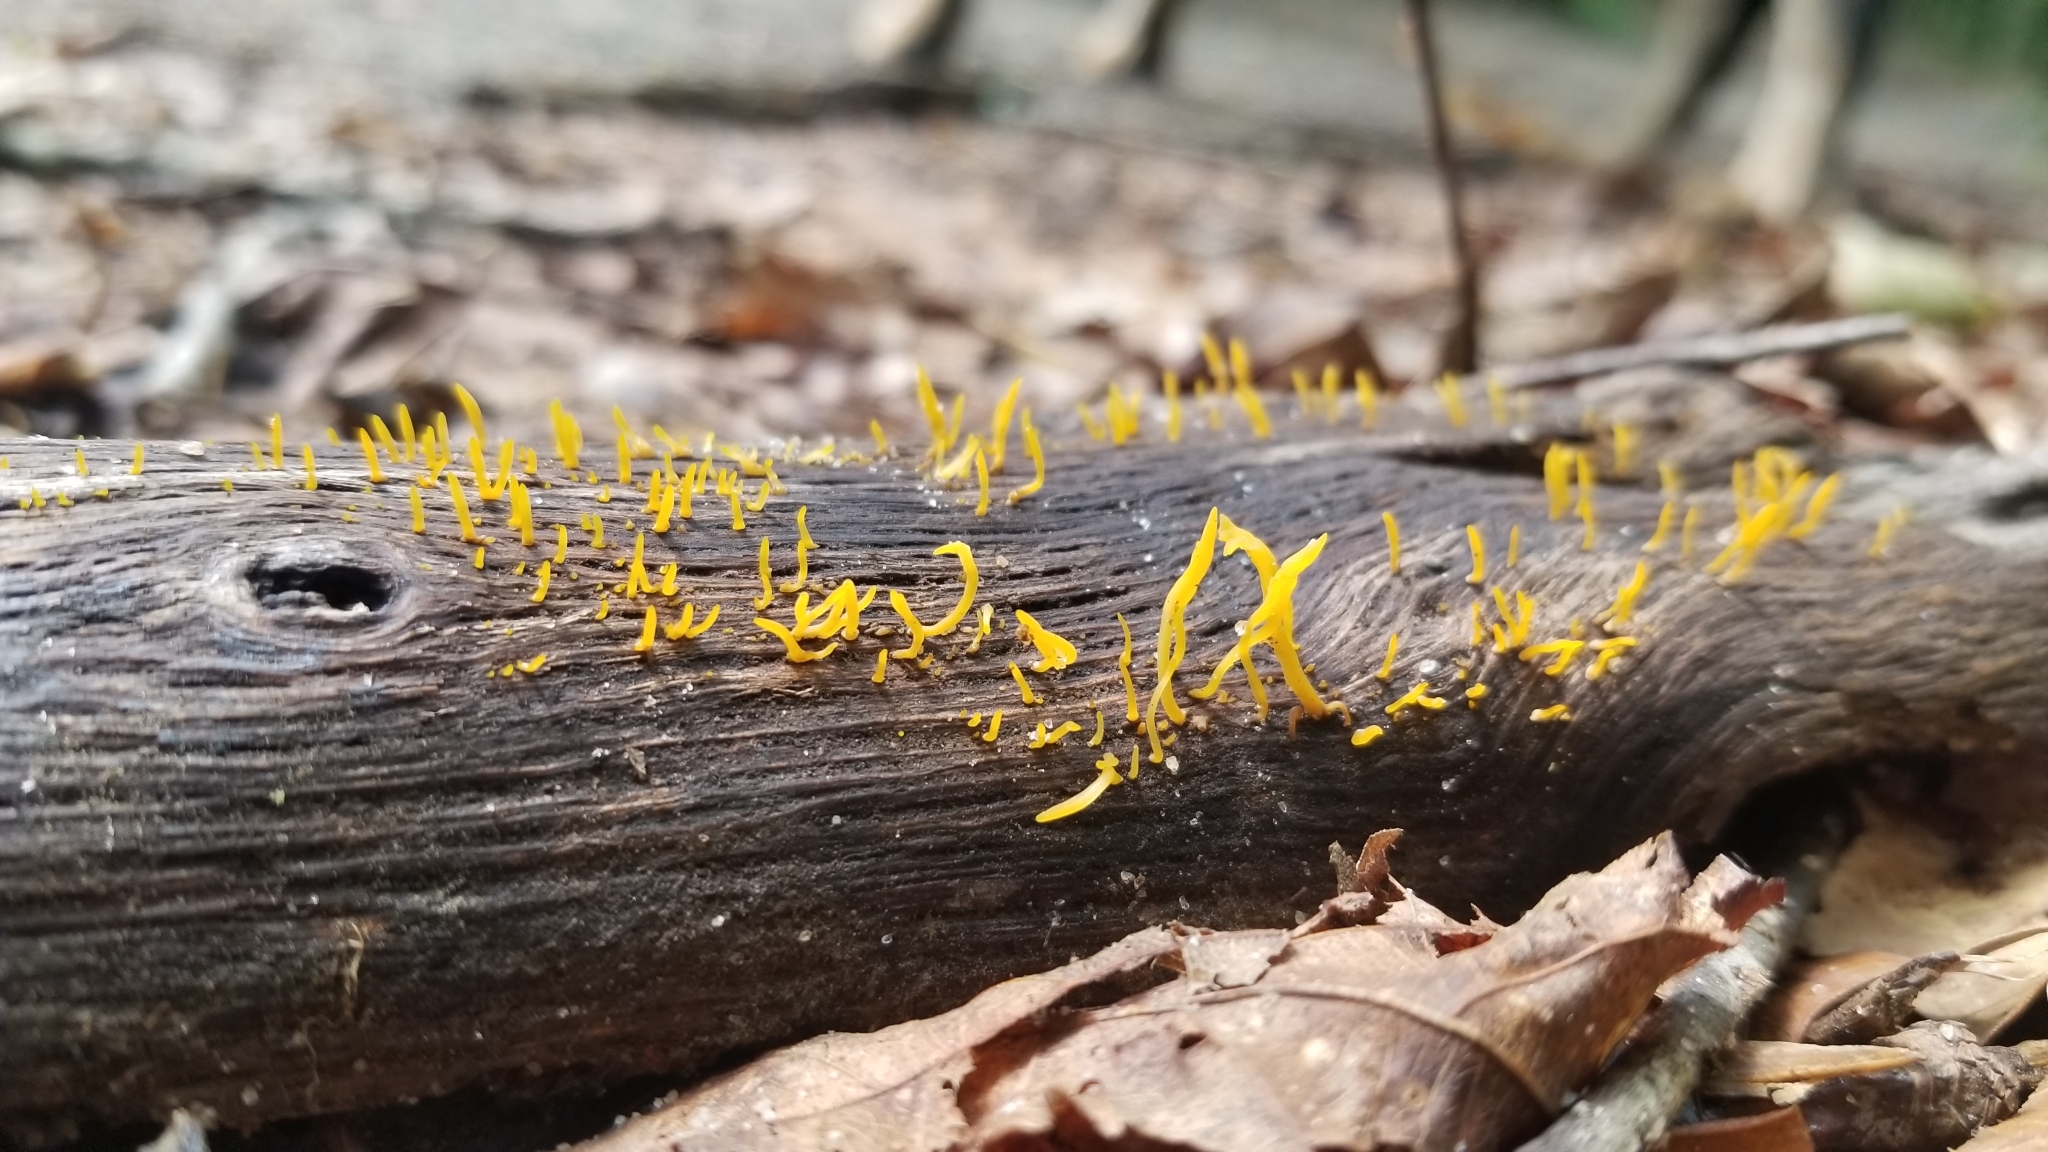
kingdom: Fungi
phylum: Basidiomycota
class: Dacrymycetes
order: Dacrymycetales
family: Dacrymycetaceae
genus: Calocera
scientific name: Calocera cornea
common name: Small stagshorn
